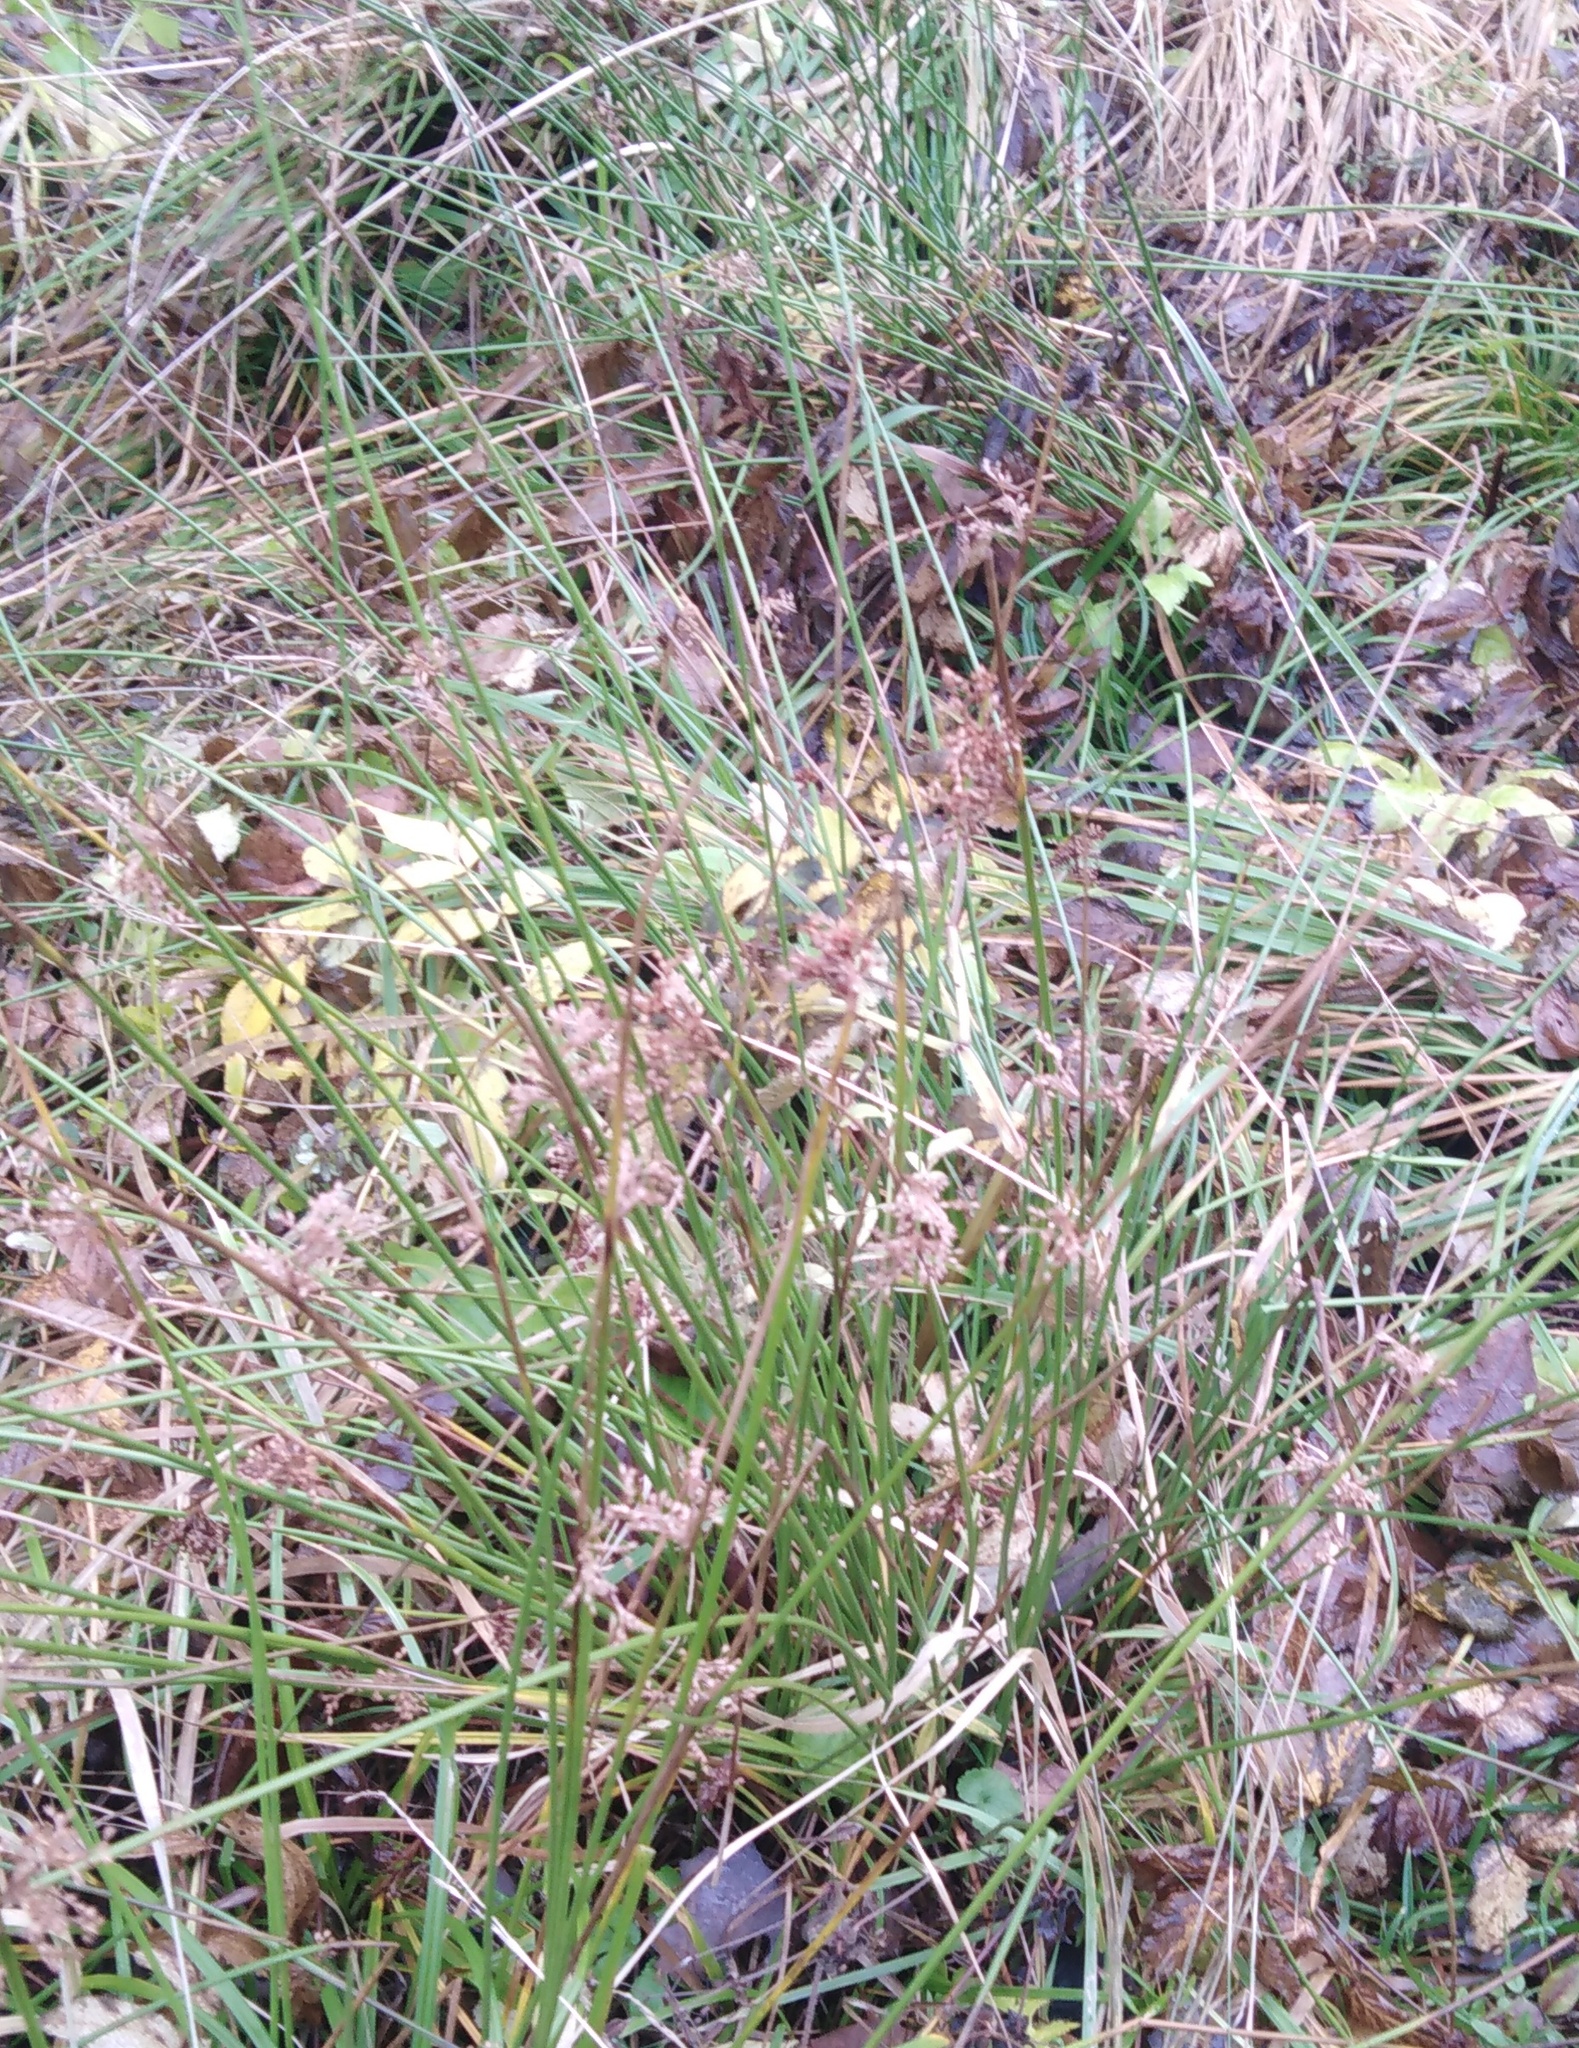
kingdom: Plantae
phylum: Tracheophyta
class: Liliopsida
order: Poales
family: Juncaceae
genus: Juncus
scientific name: Juncus effusus
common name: Soft rush
